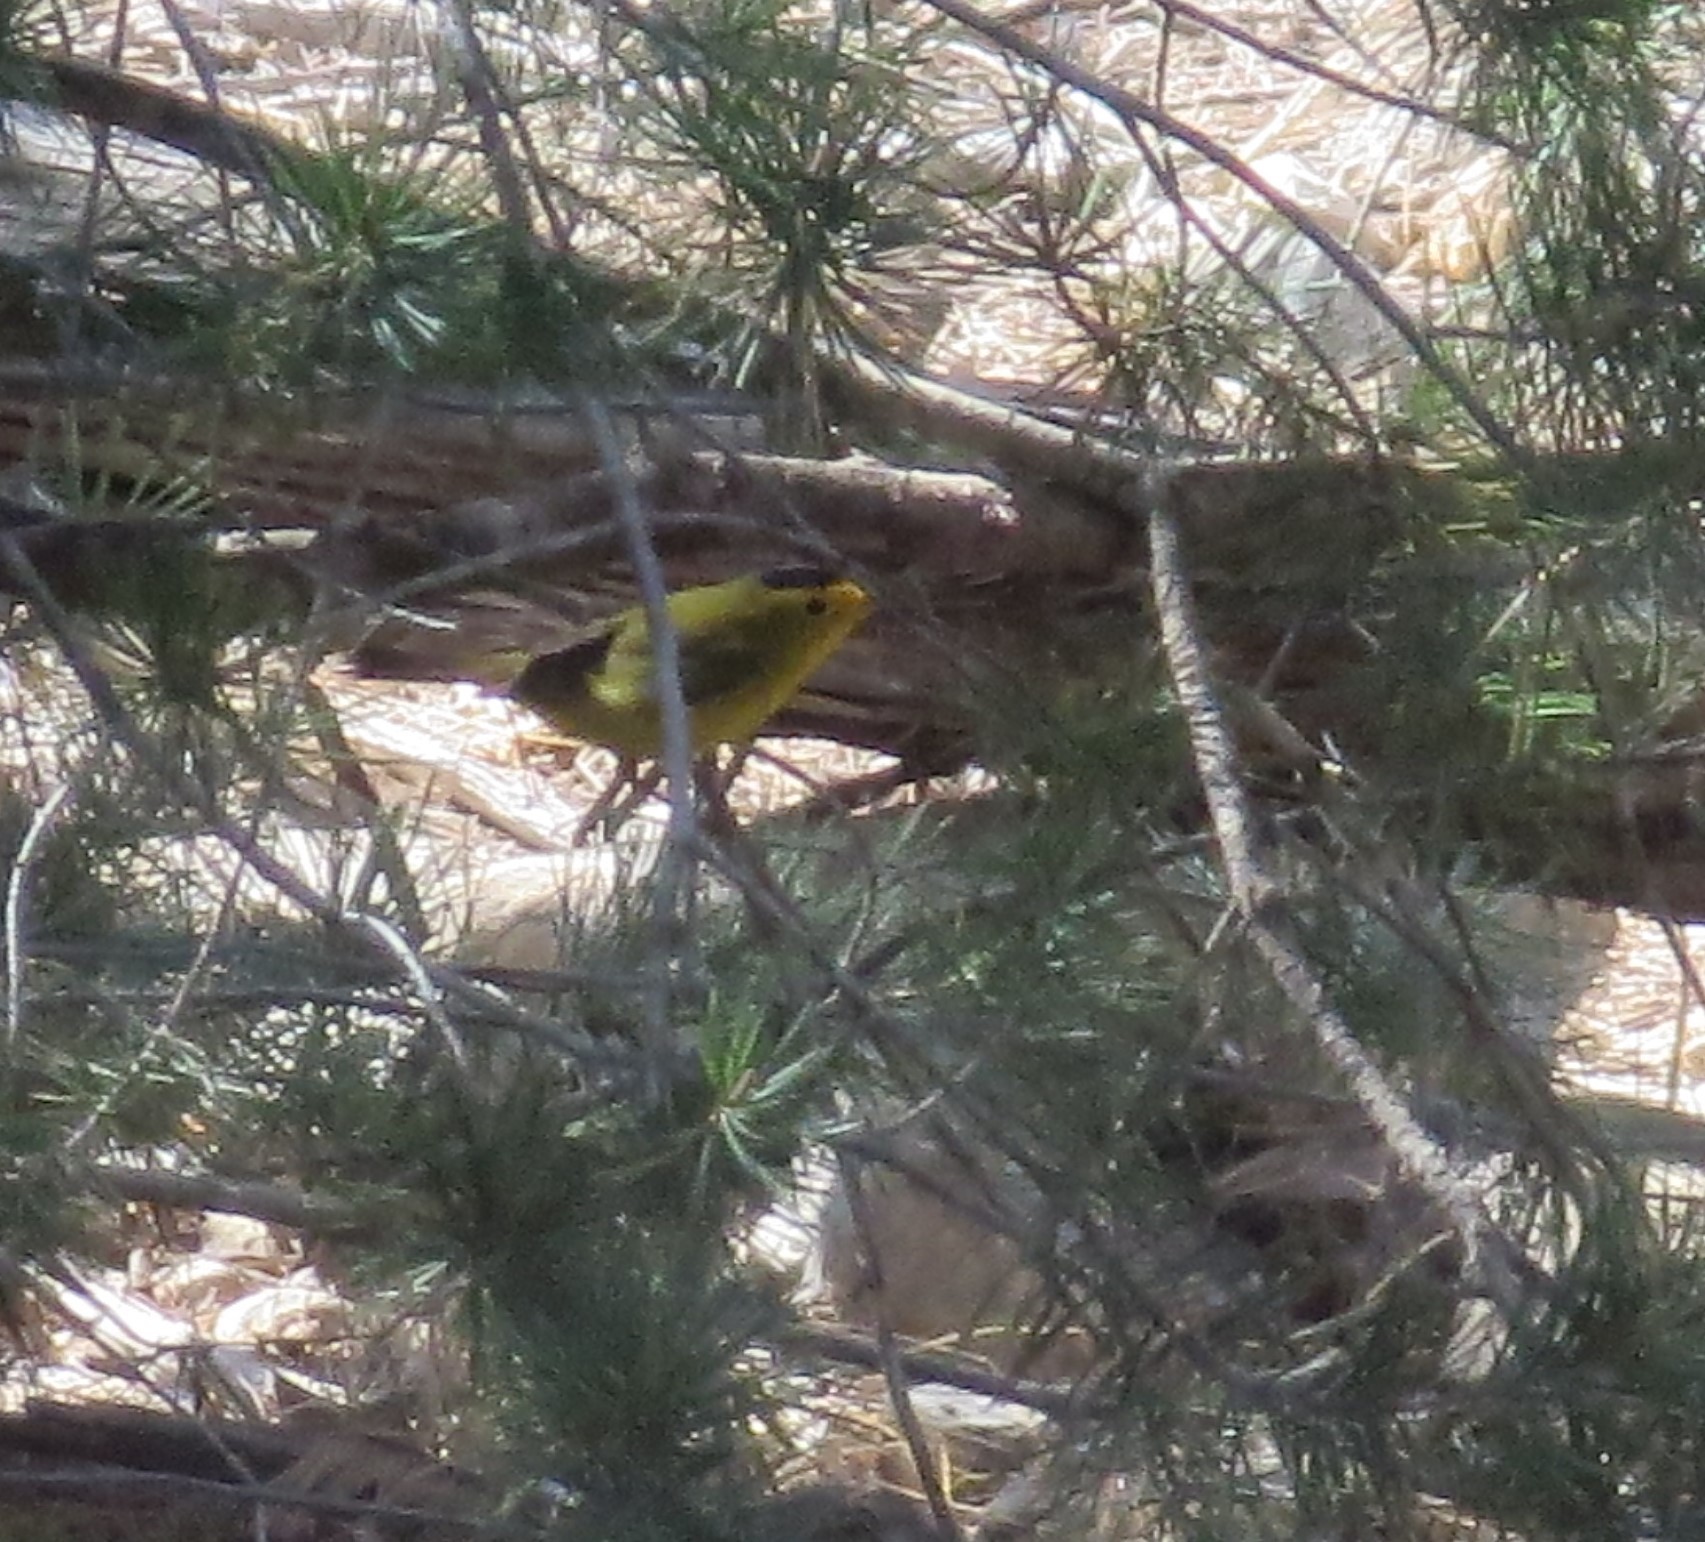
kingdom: Animalia
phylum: Chordata
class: Aves
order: Passeriformes
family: Parulidae
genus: Cardellina
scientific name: Cardellina pusilla
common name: Wilson's warbler
